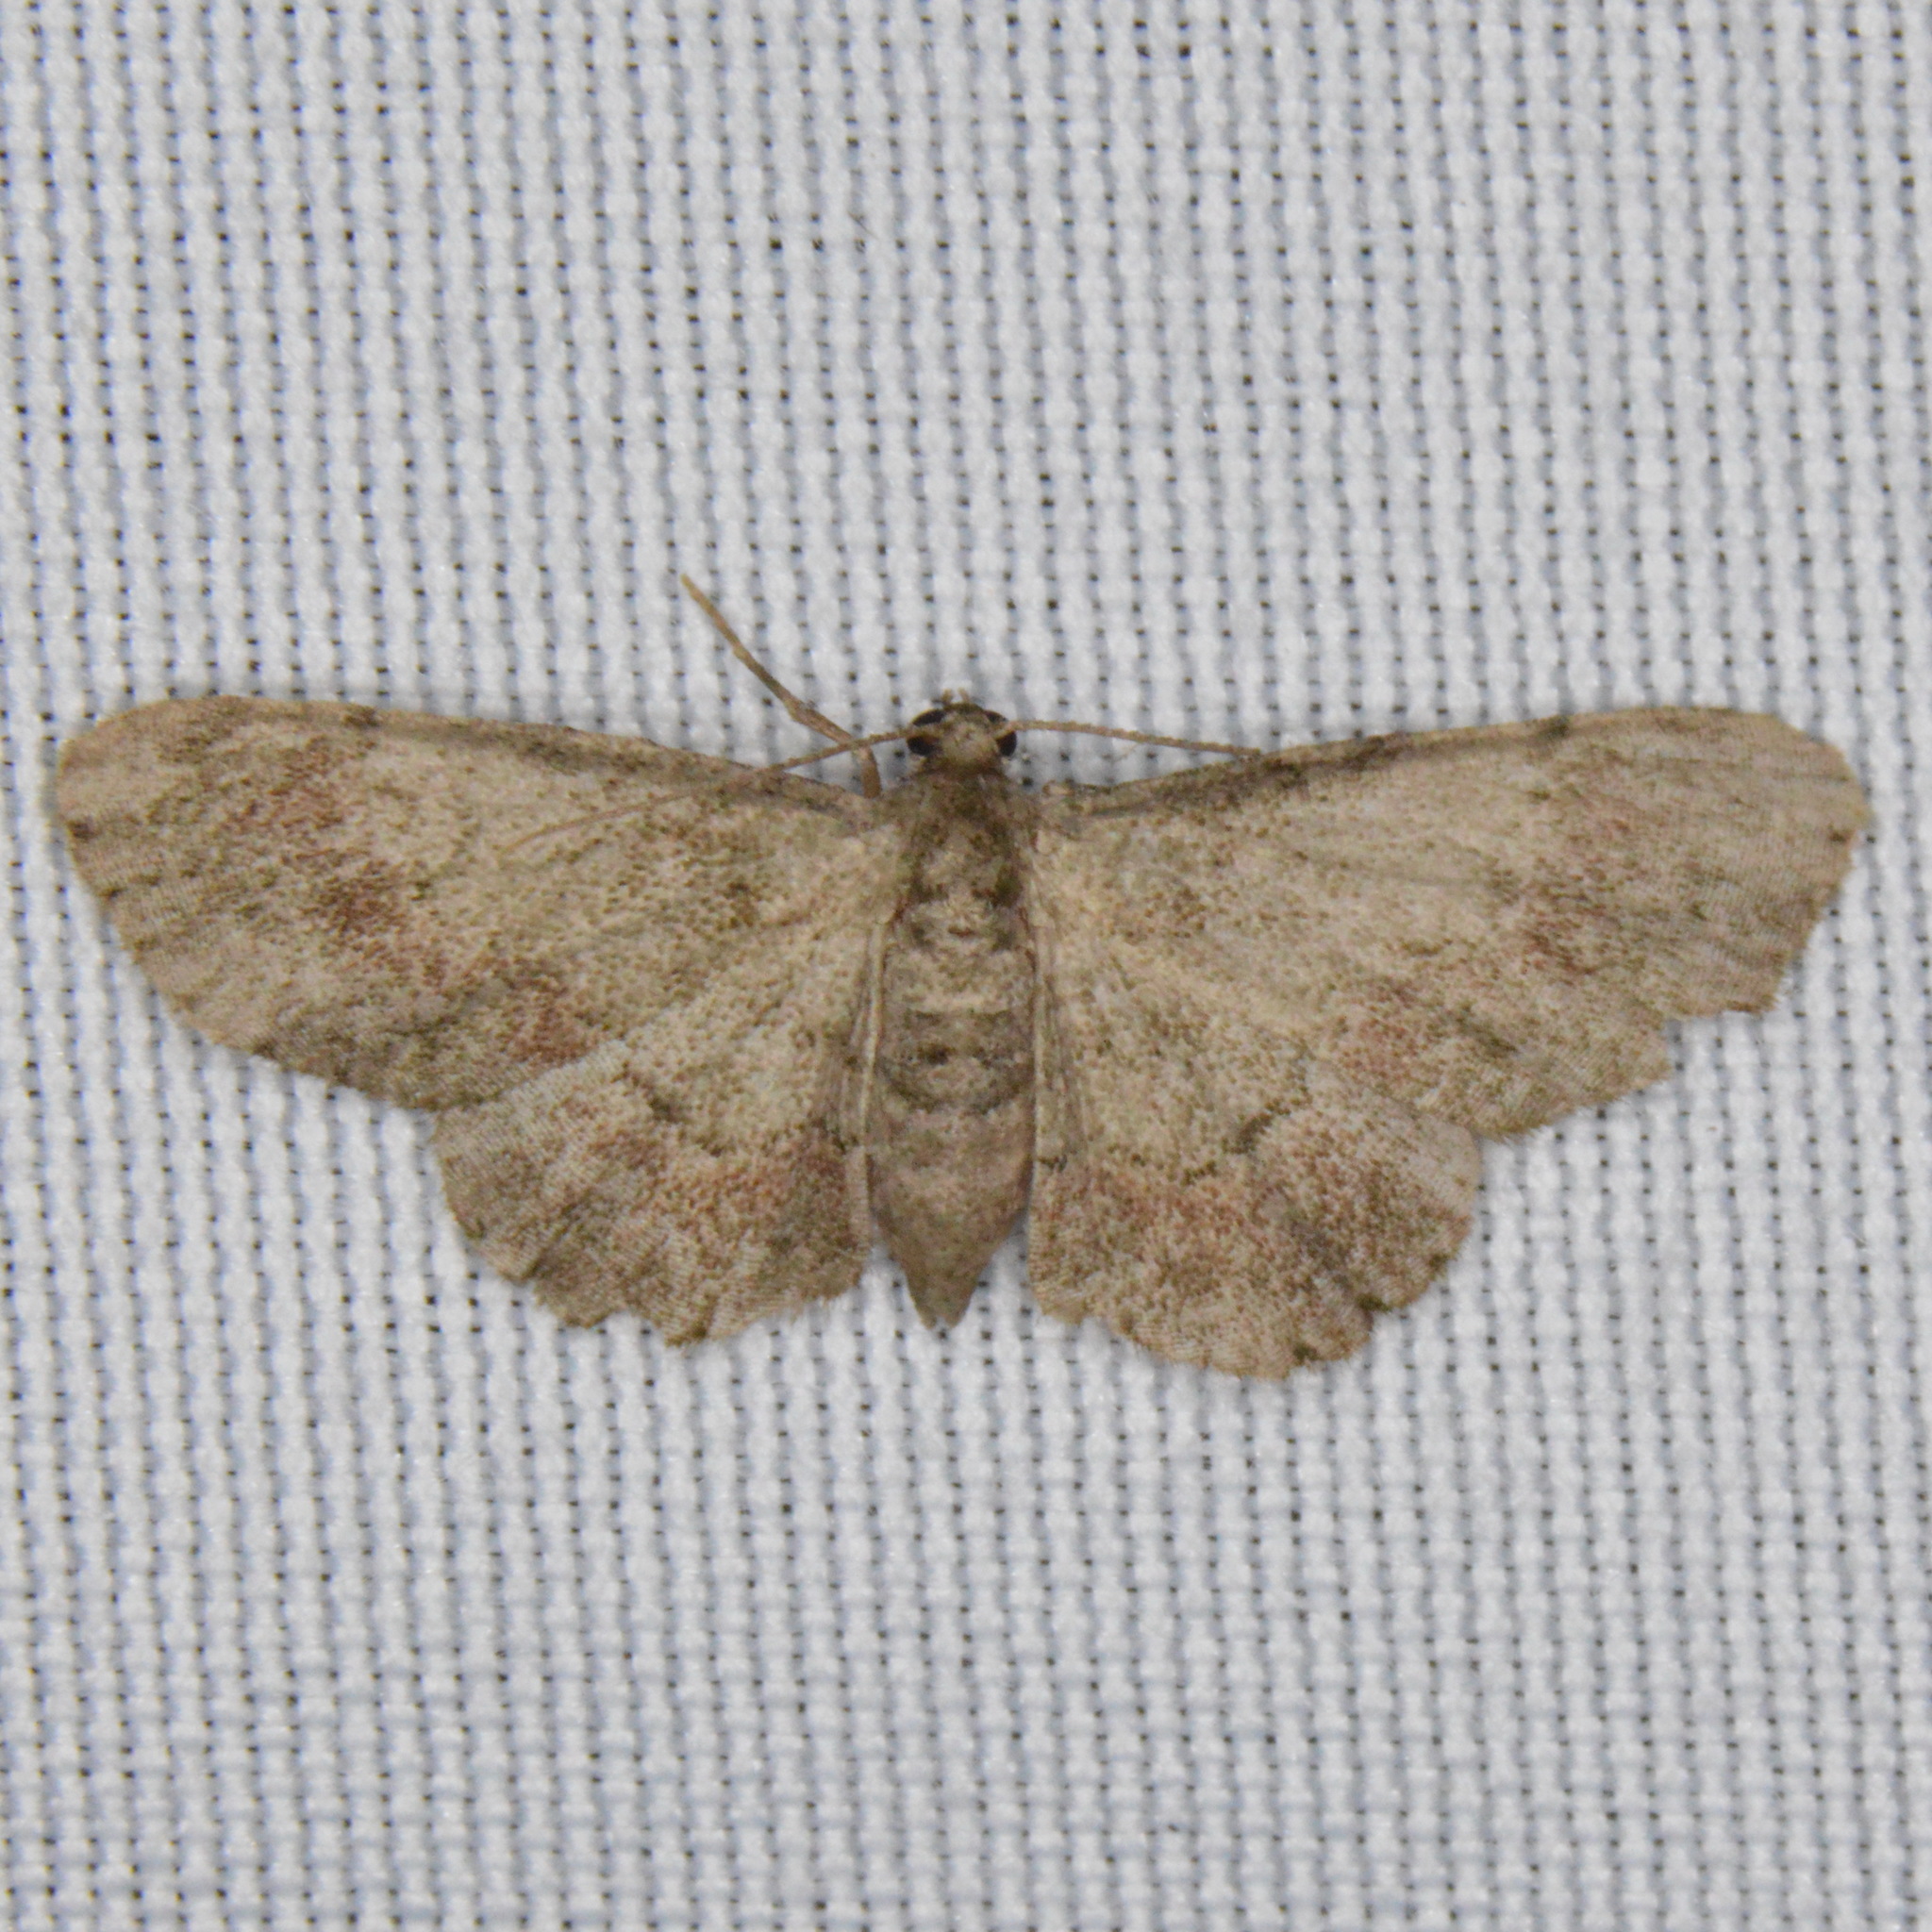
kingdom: Animalia
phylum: Arthropoda
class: Insecta
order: Lepidoptera
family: Geometridae
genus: Glenoides
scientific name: Glenoides texanaria
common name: Texas gray
